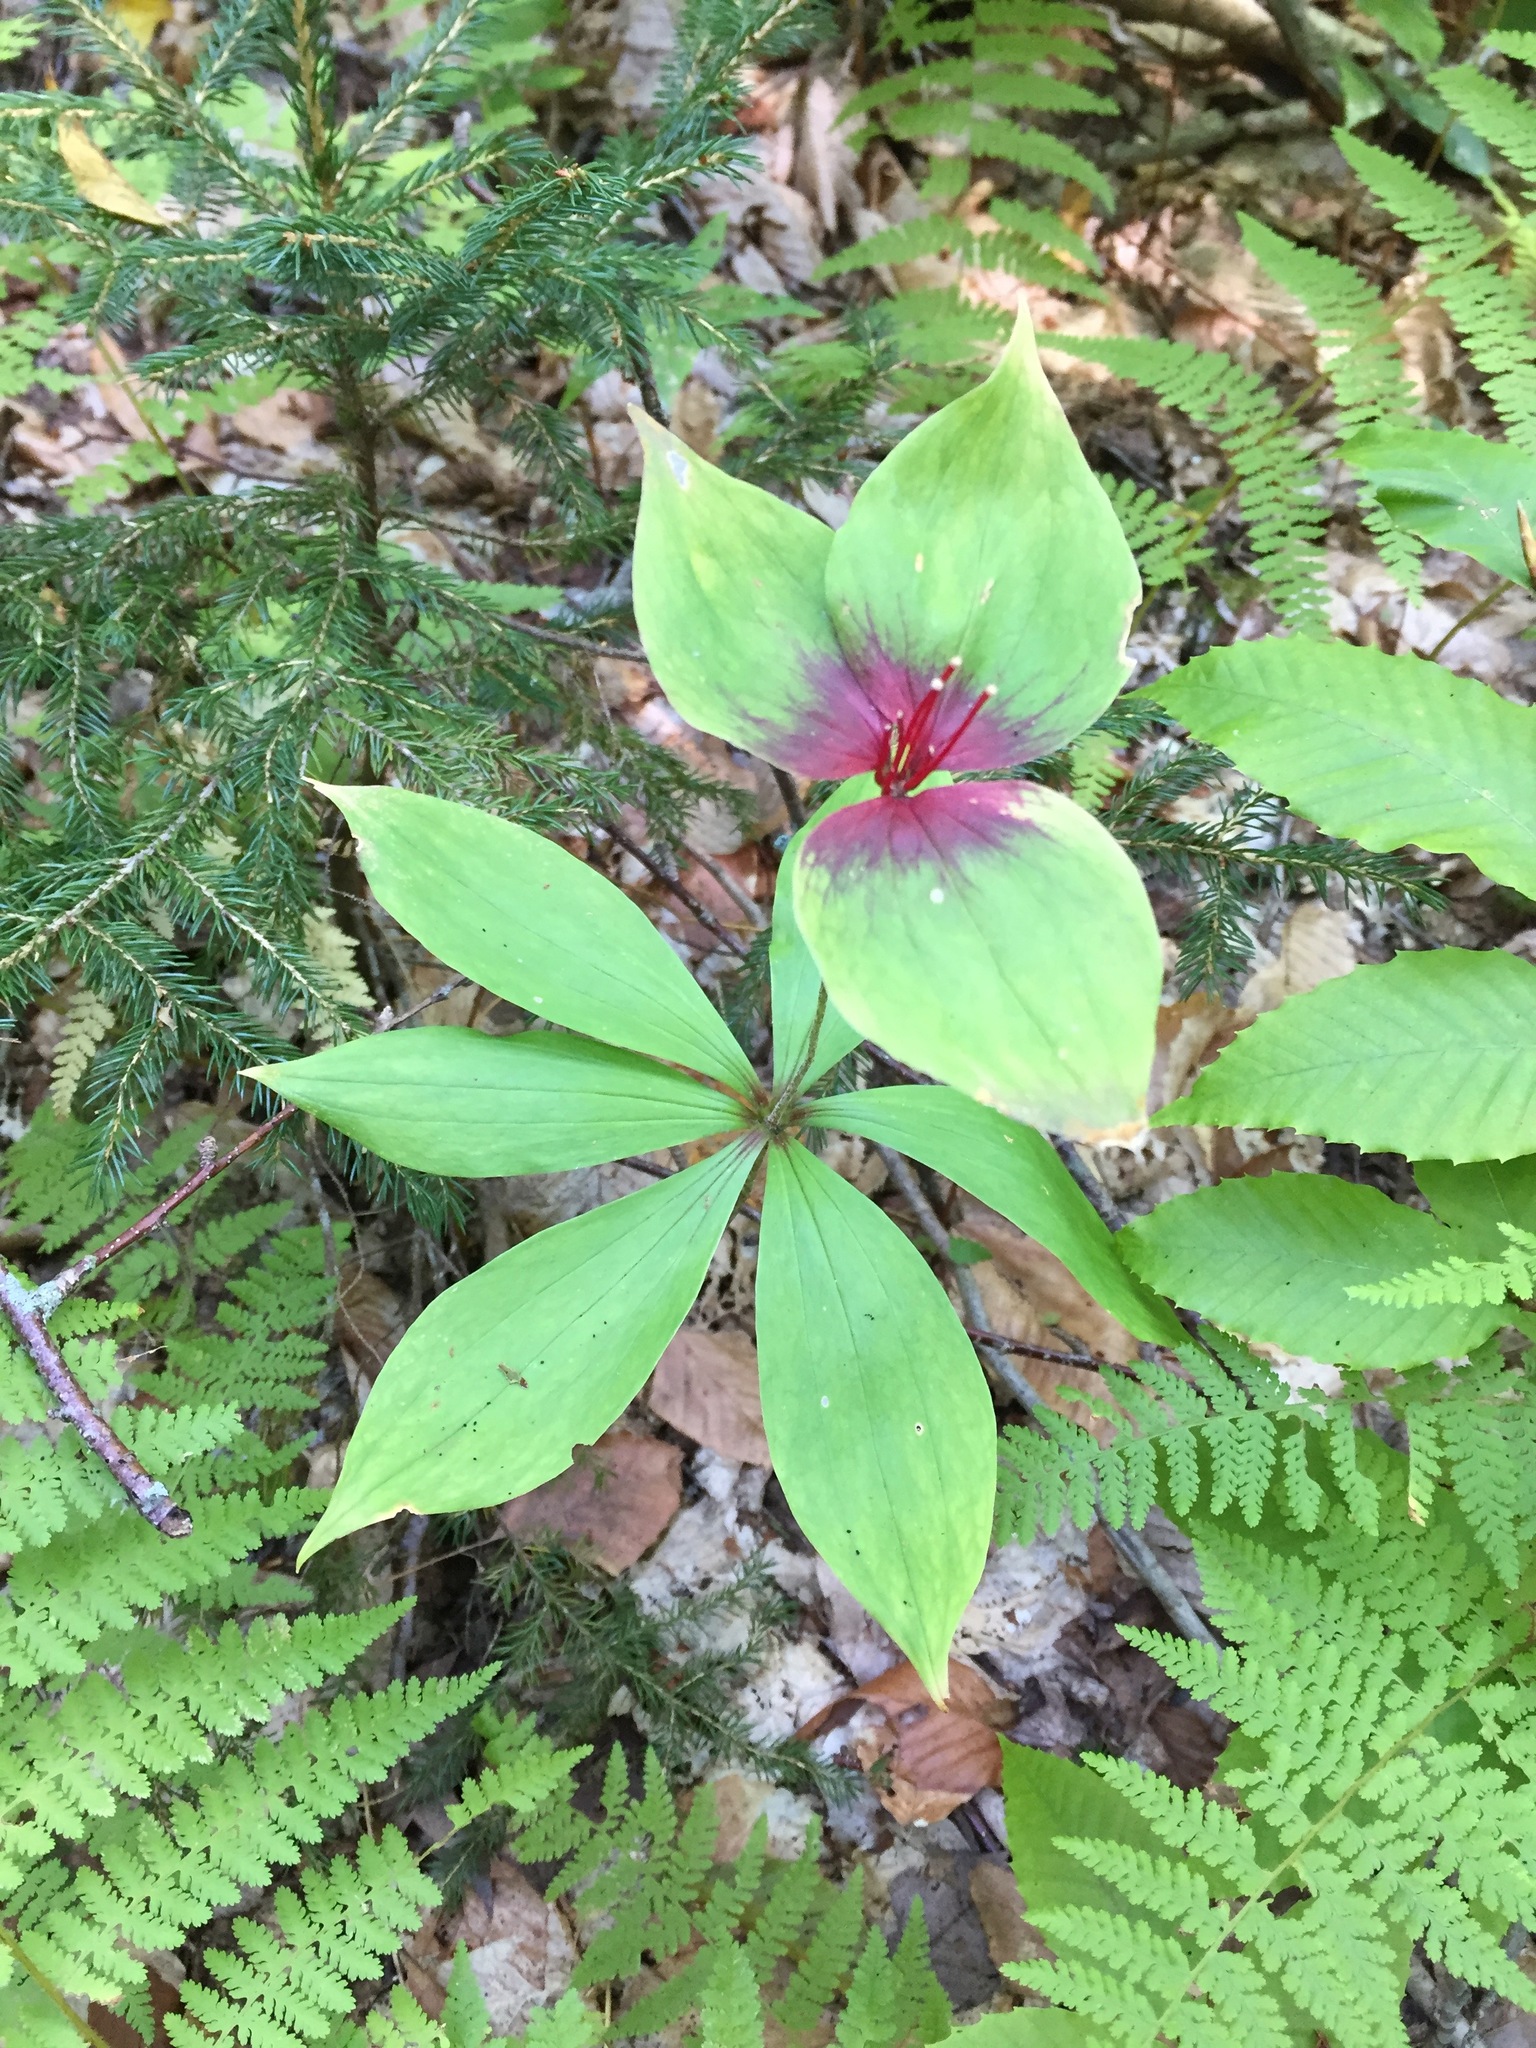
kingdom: Plantae
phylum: Tracheophyta
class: Liliopsida
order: Liliales
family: Liliaceae
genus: Medeola
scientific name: Medeola virginiana
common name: Indian cucumber-root
